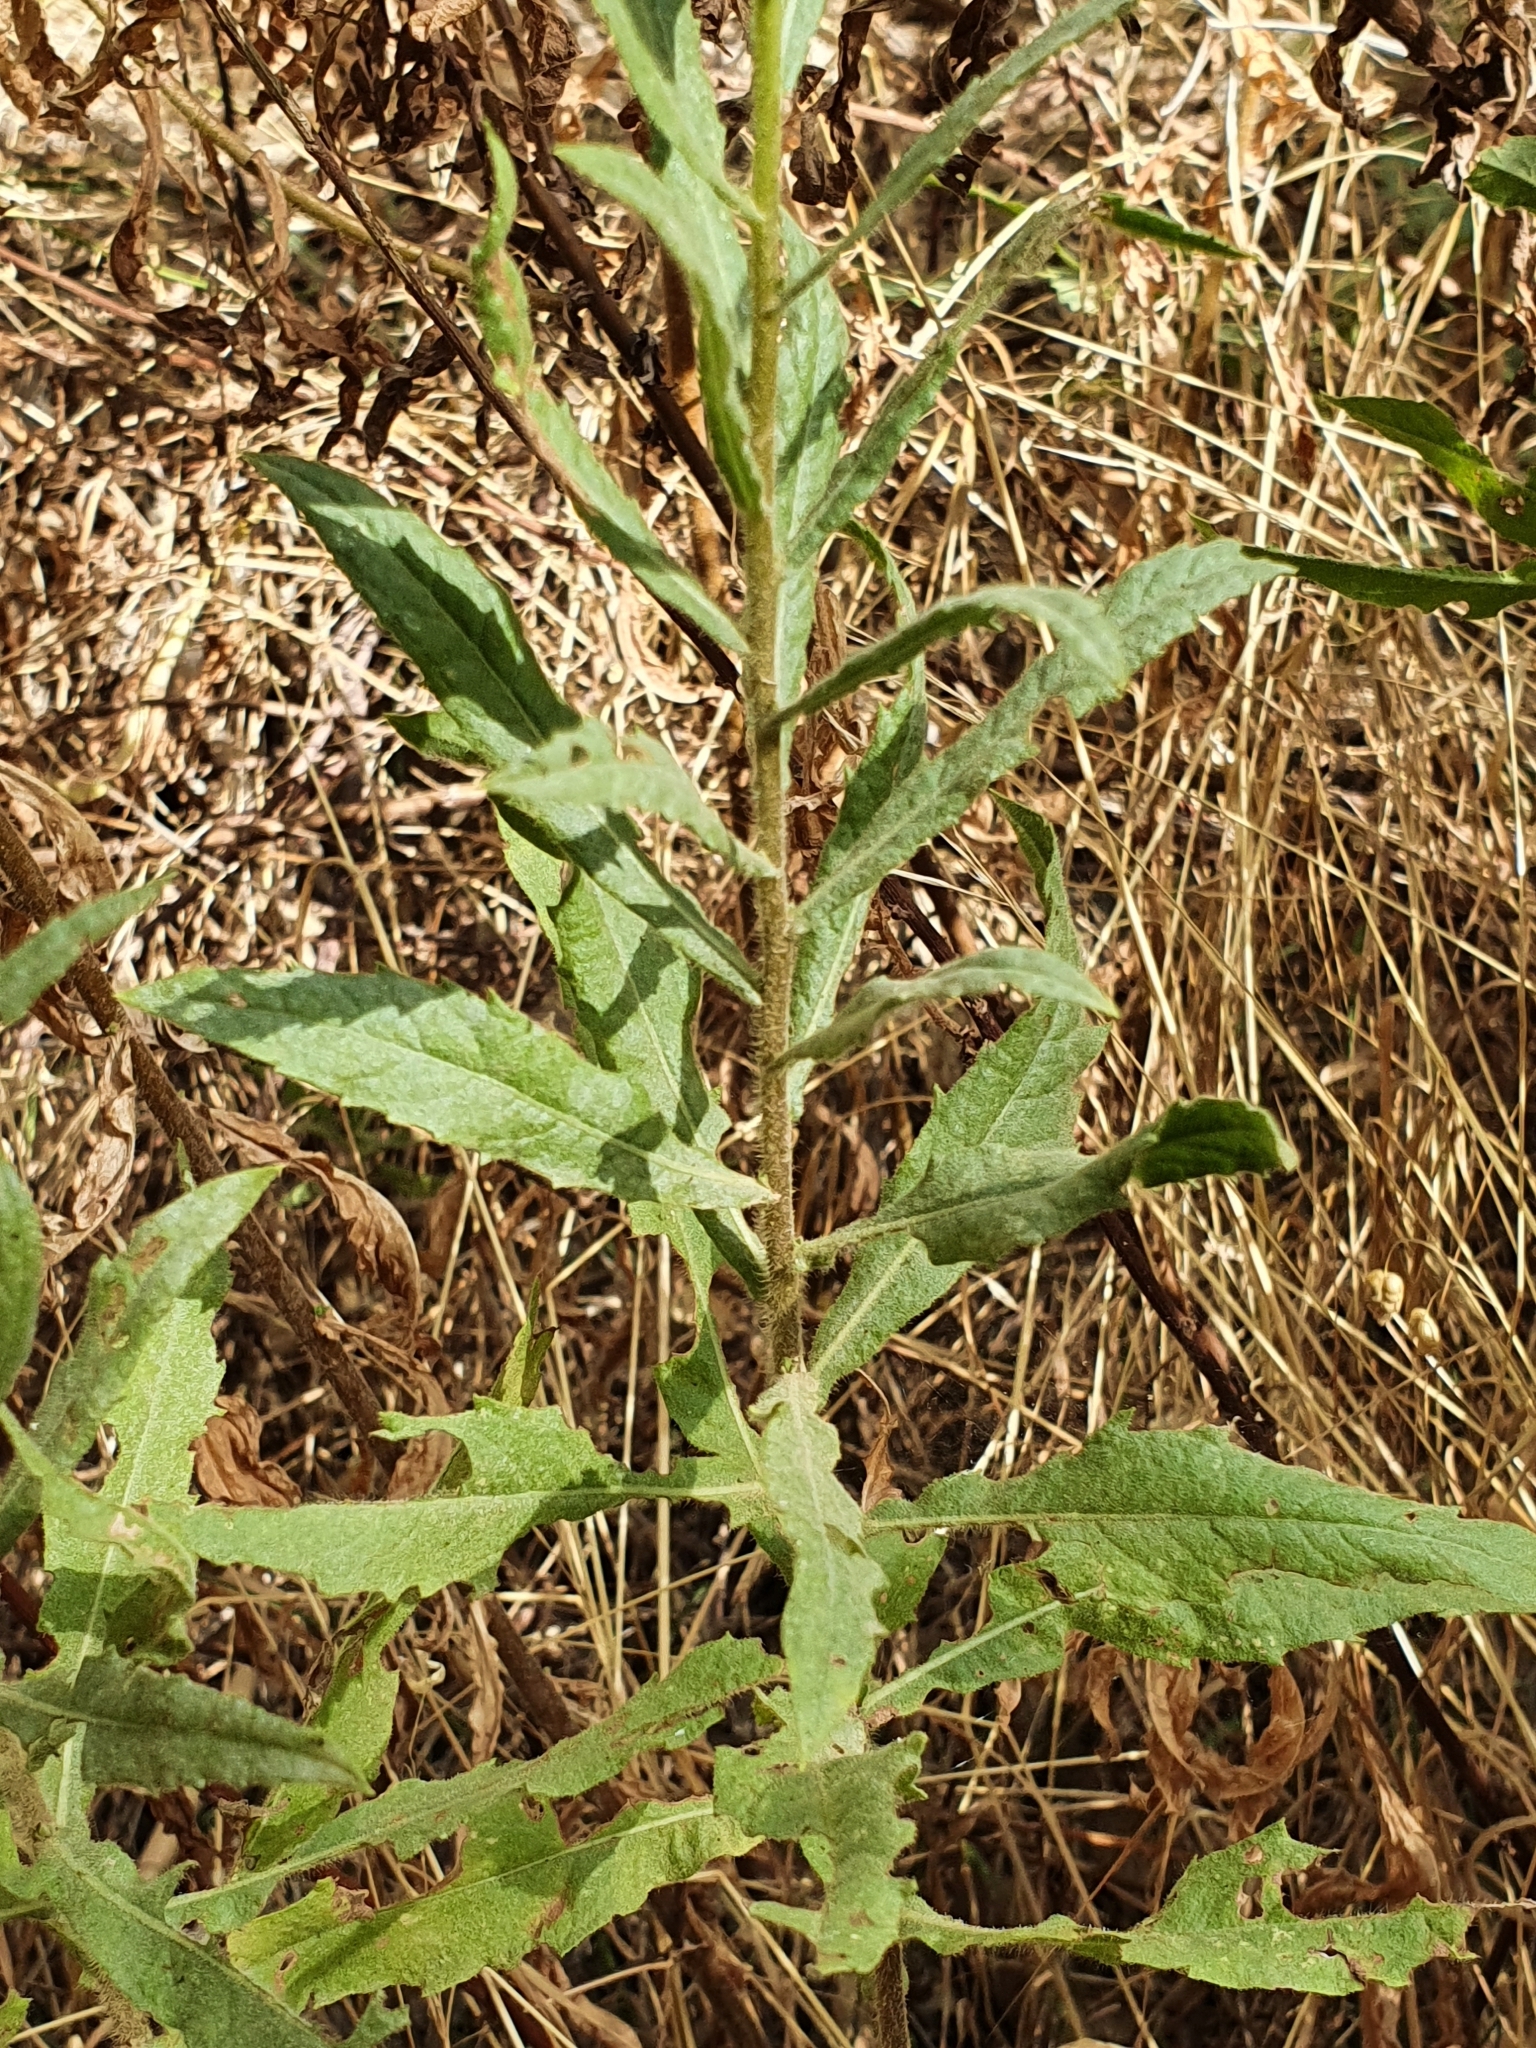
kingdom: Plantae
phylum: Tracheophyta
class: Magnoliopsida
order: Asterales
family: Asteraceae
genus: Dittrichia
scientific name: Dittrichia viscosa
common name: Woody fleabane
